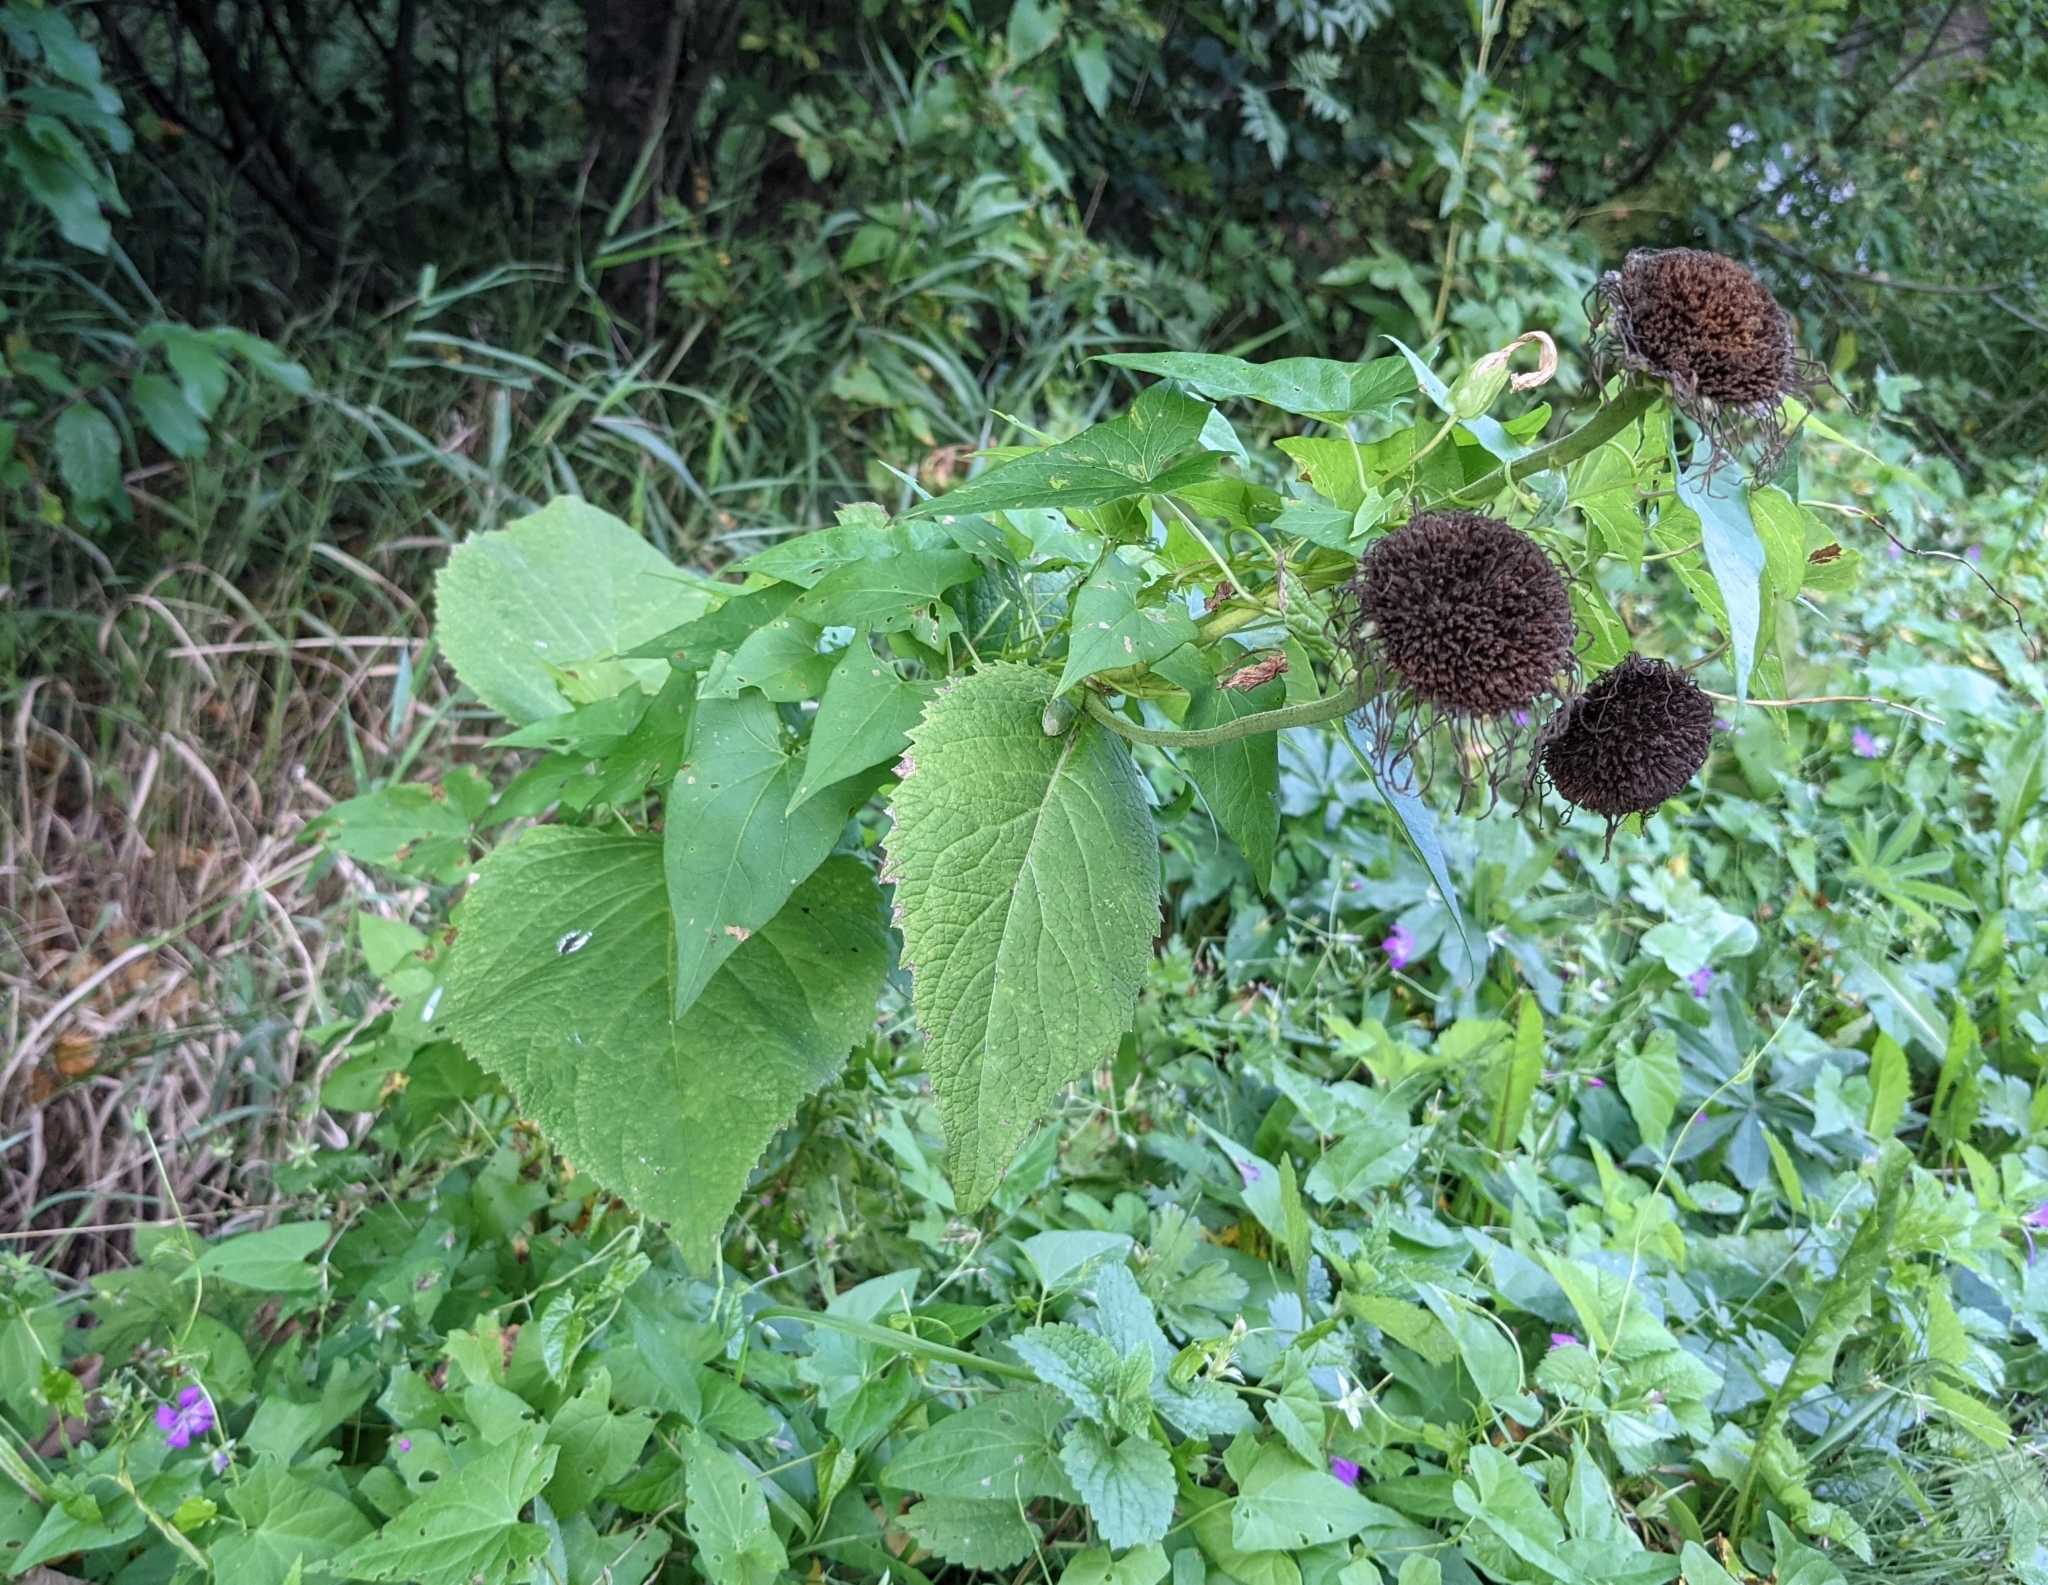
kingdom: Plantae
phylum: Tracheophyta
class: Magnoliopsida
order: Asterales
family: Asteraceae
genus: Telekia
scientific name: Telekia speciosa
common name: Yellow oxeye
